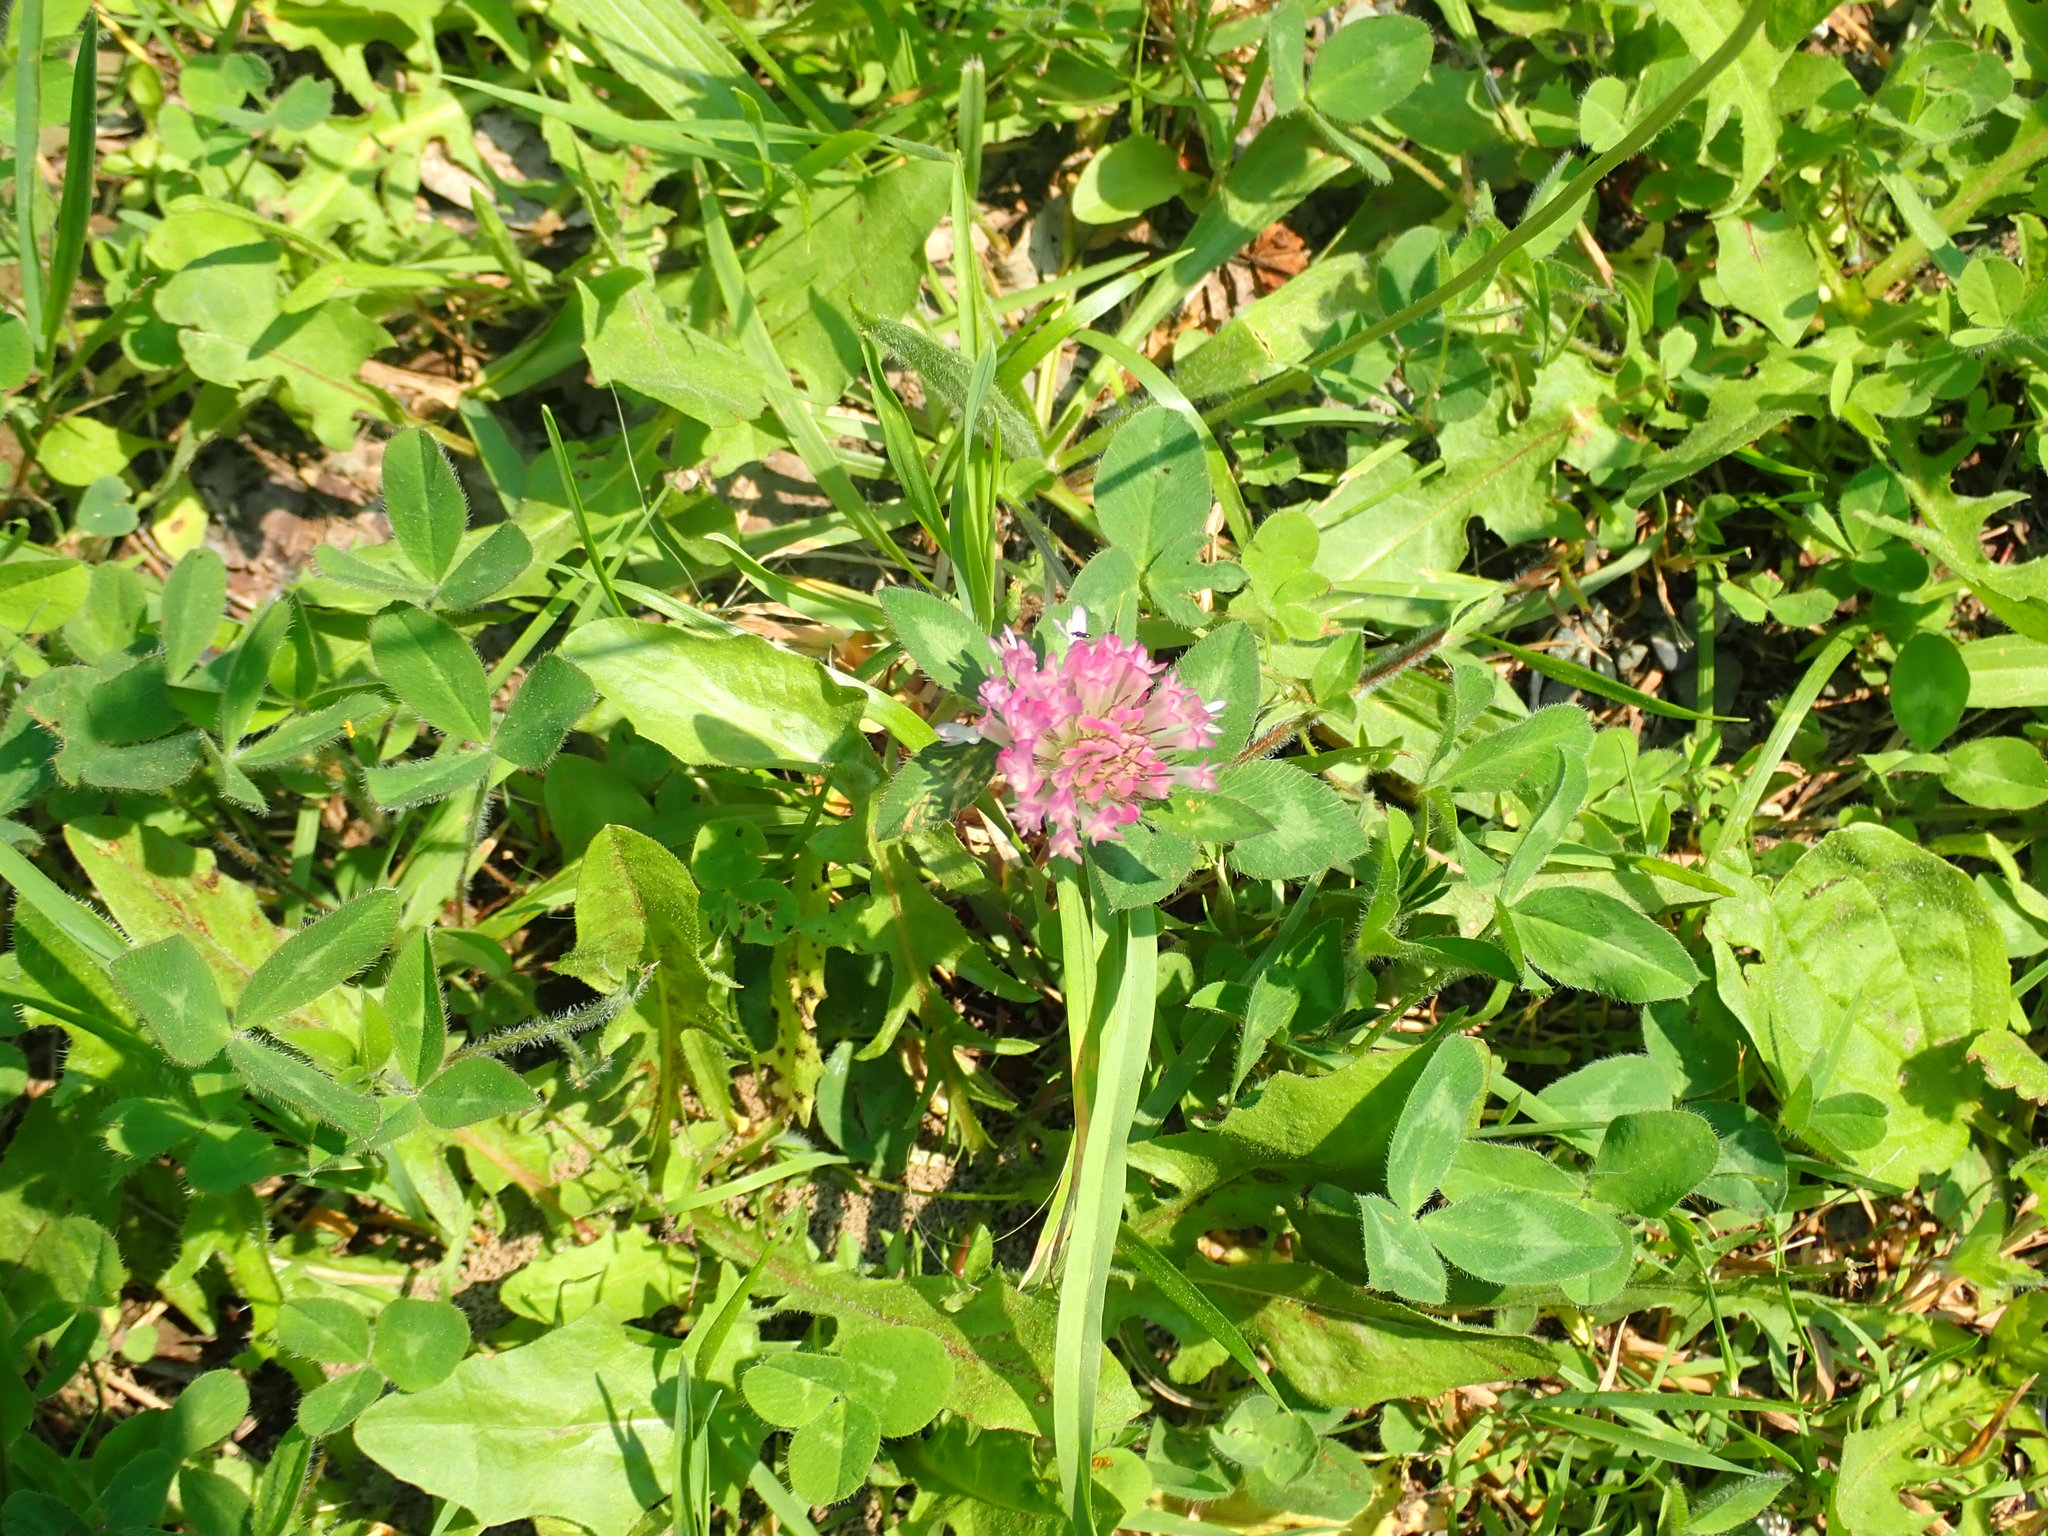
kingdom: Plantae
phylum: Tracheophyta
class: Magnoliopsida
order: Fabales
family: Fabaceae
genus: Trifolium
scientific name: Trifolium pratense
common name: Red clover
